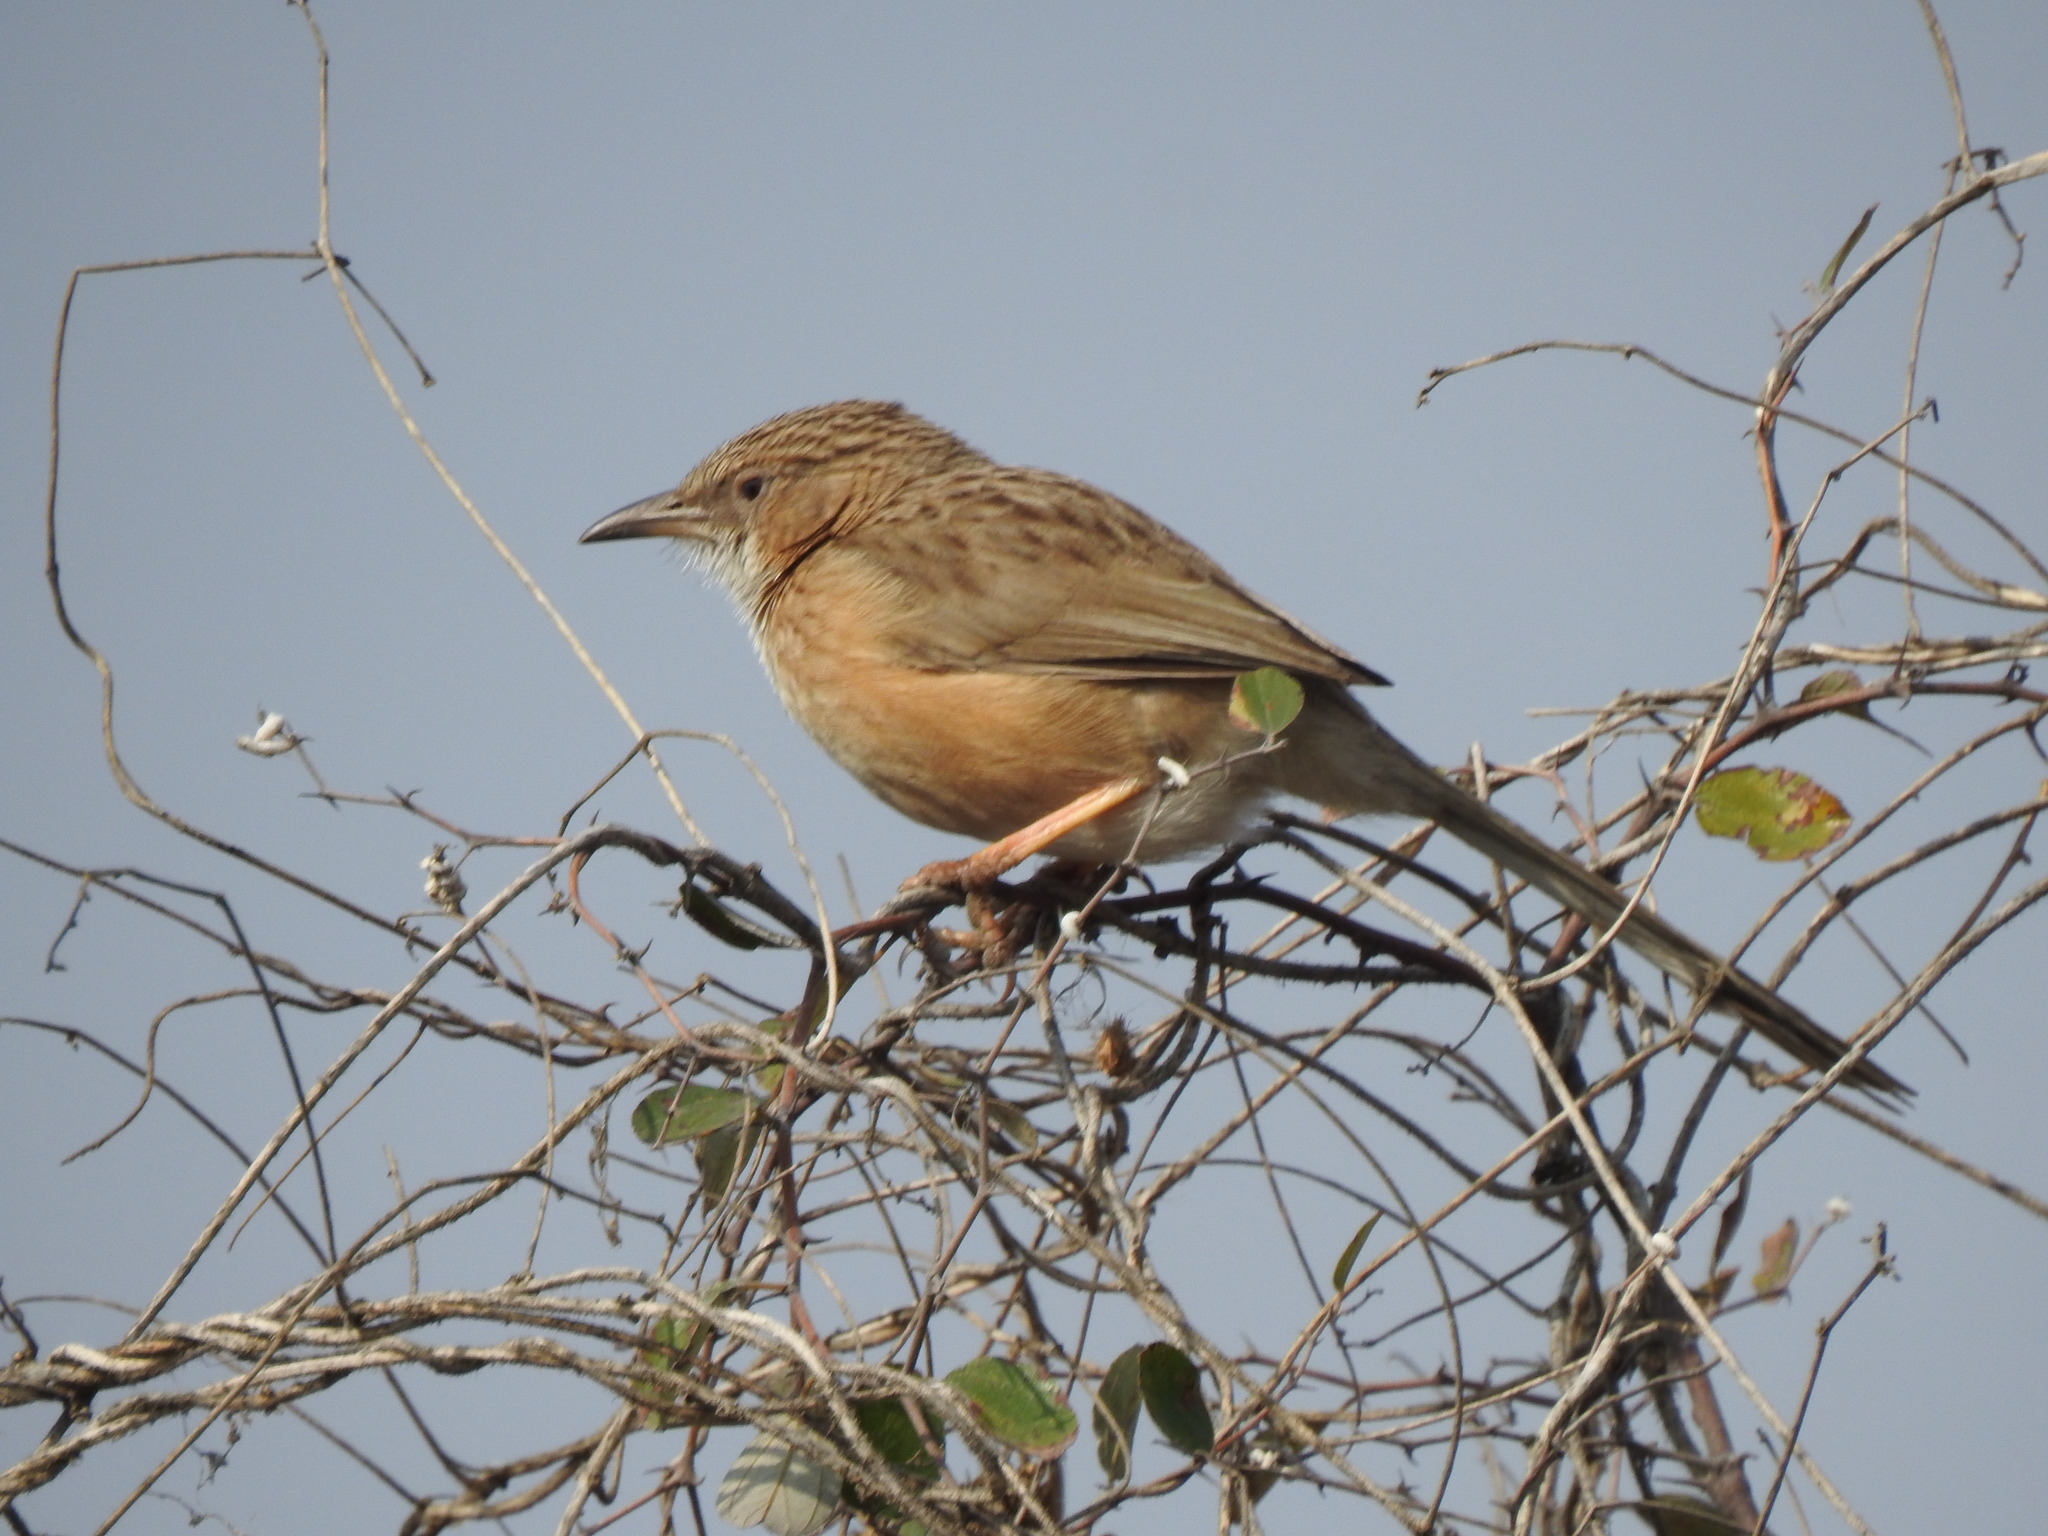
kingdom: Animalia
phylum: Chordata
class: Aves
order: Passeriformes
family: Leiothrichidae
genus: Turdoides
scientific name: Turdoides caudata
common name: Common babbler
